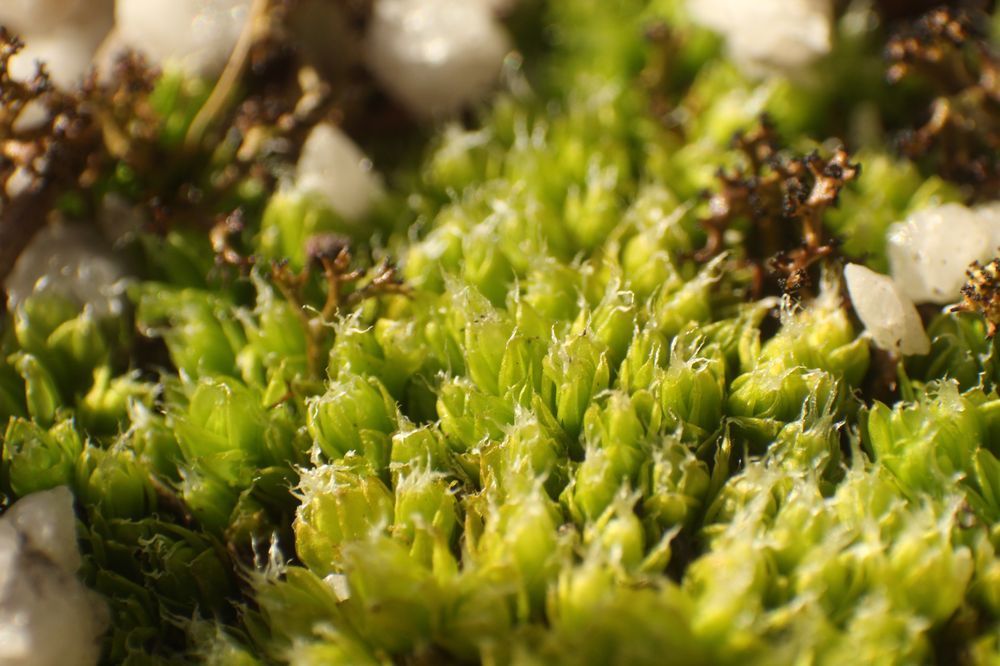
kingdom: Plantae
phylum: Bryophyta
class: Bryopsida
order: Pottiales
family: Pleurophascaceae
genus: Pleurophascum
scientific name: Pleurophascum occidentale
